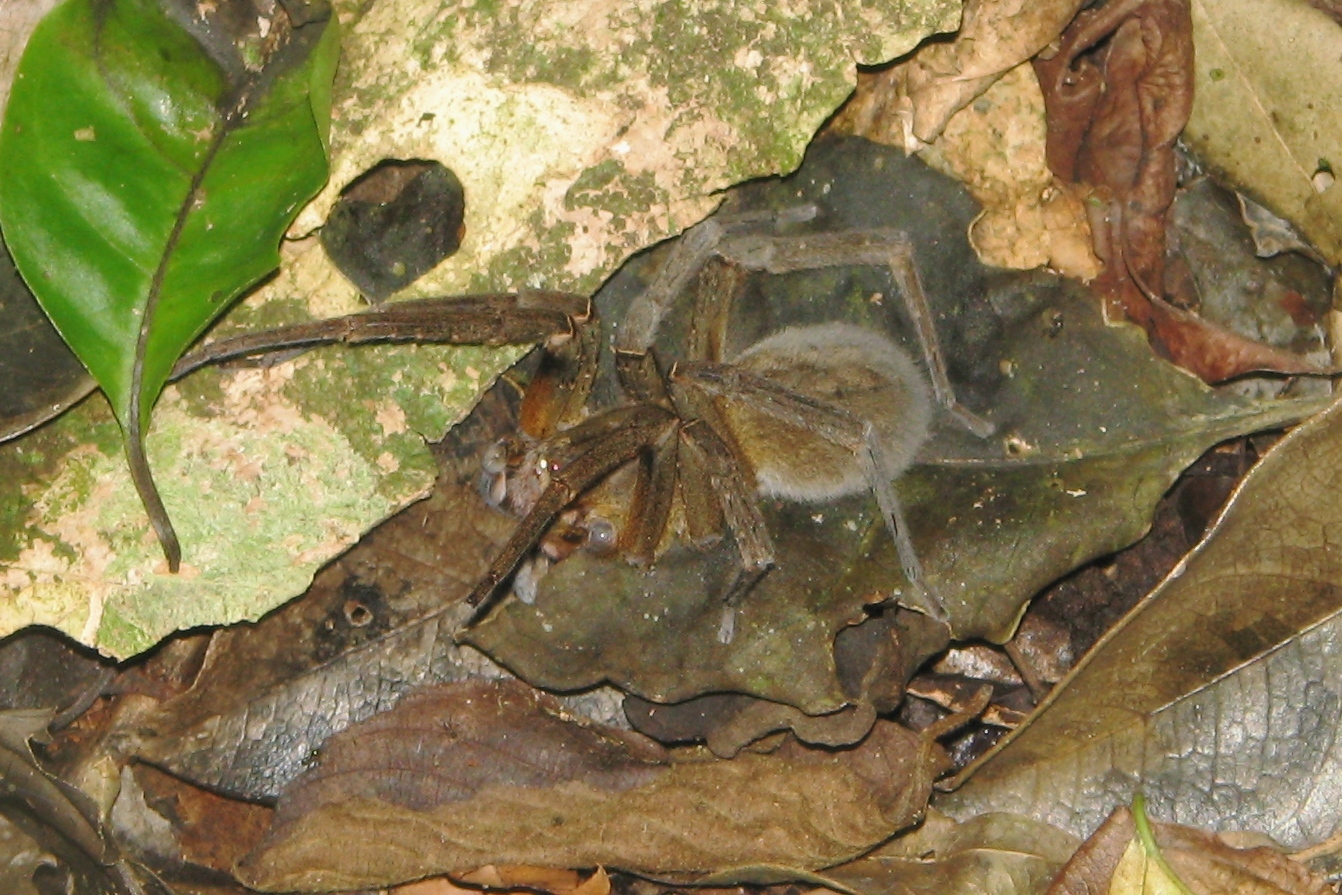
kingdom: Animalia
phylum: Arthropoda
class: Arachnida
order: Araneae
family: Ctenidae
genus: Phoneutria
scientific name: Phoneutria nigriventer
